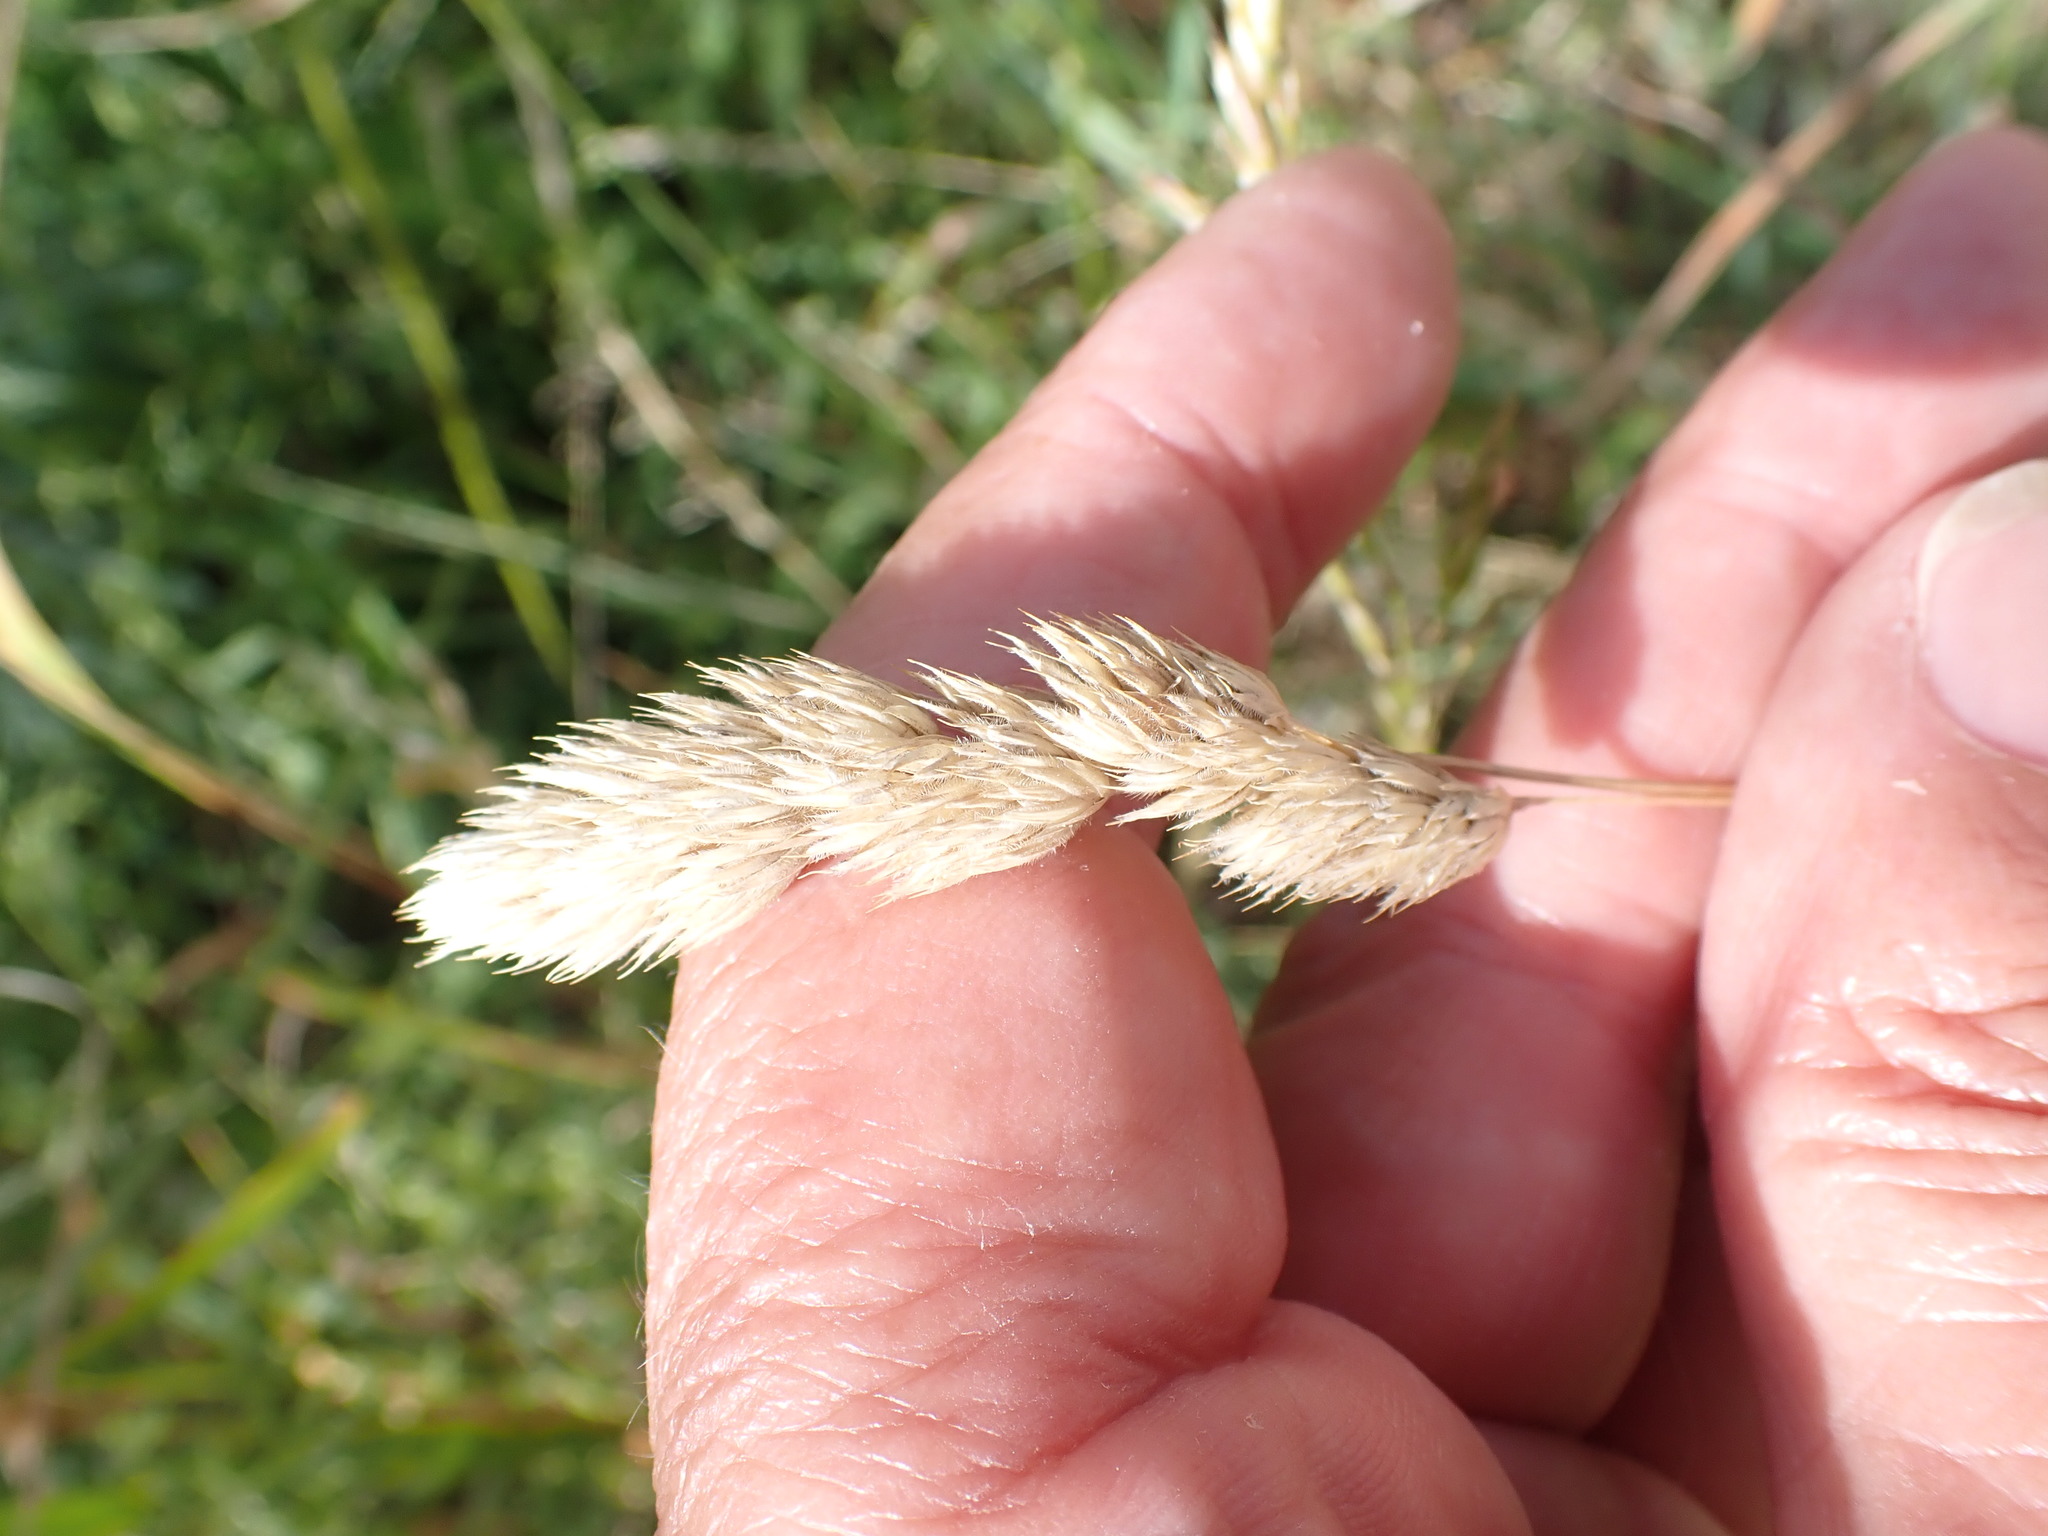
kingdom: Plantae
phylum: Tracheophyta
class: Liliopsida
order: Poales
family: Poaceae
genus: Dactylis
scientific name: Dactylis glomerata
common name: Orchardgrass
